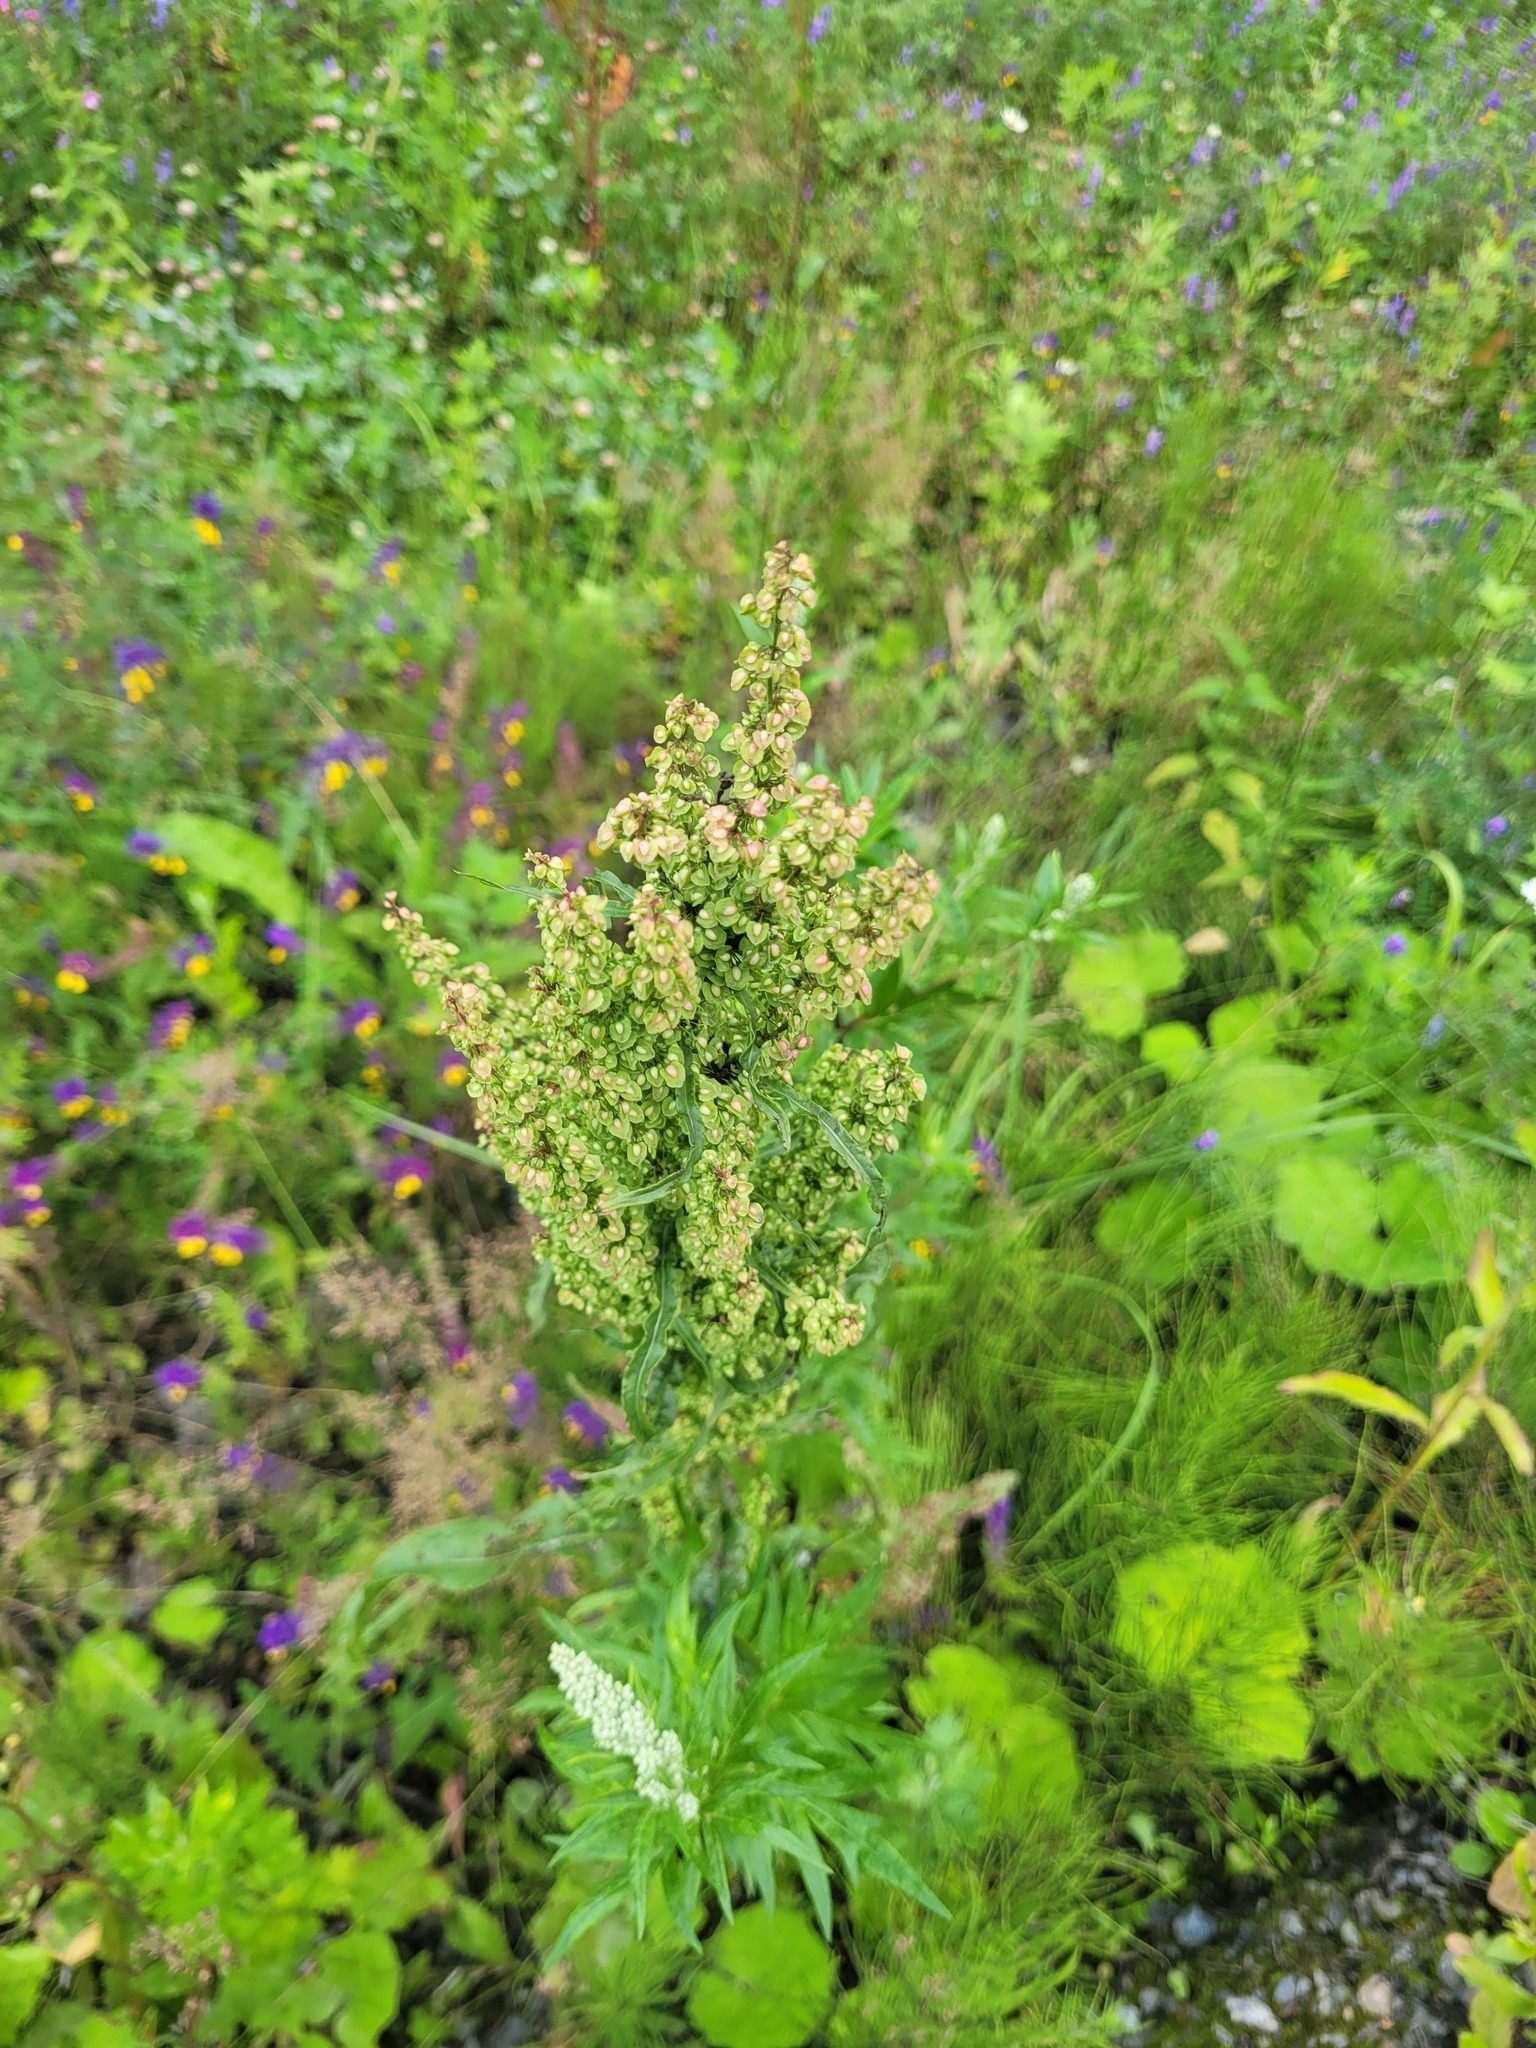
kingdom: Plantae
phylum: Tracheophyta
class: Magnoliopsida
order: Caryophyllales
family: Polygonaceae
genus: Rumex
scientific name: Rumex crispus
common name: Curled dock
